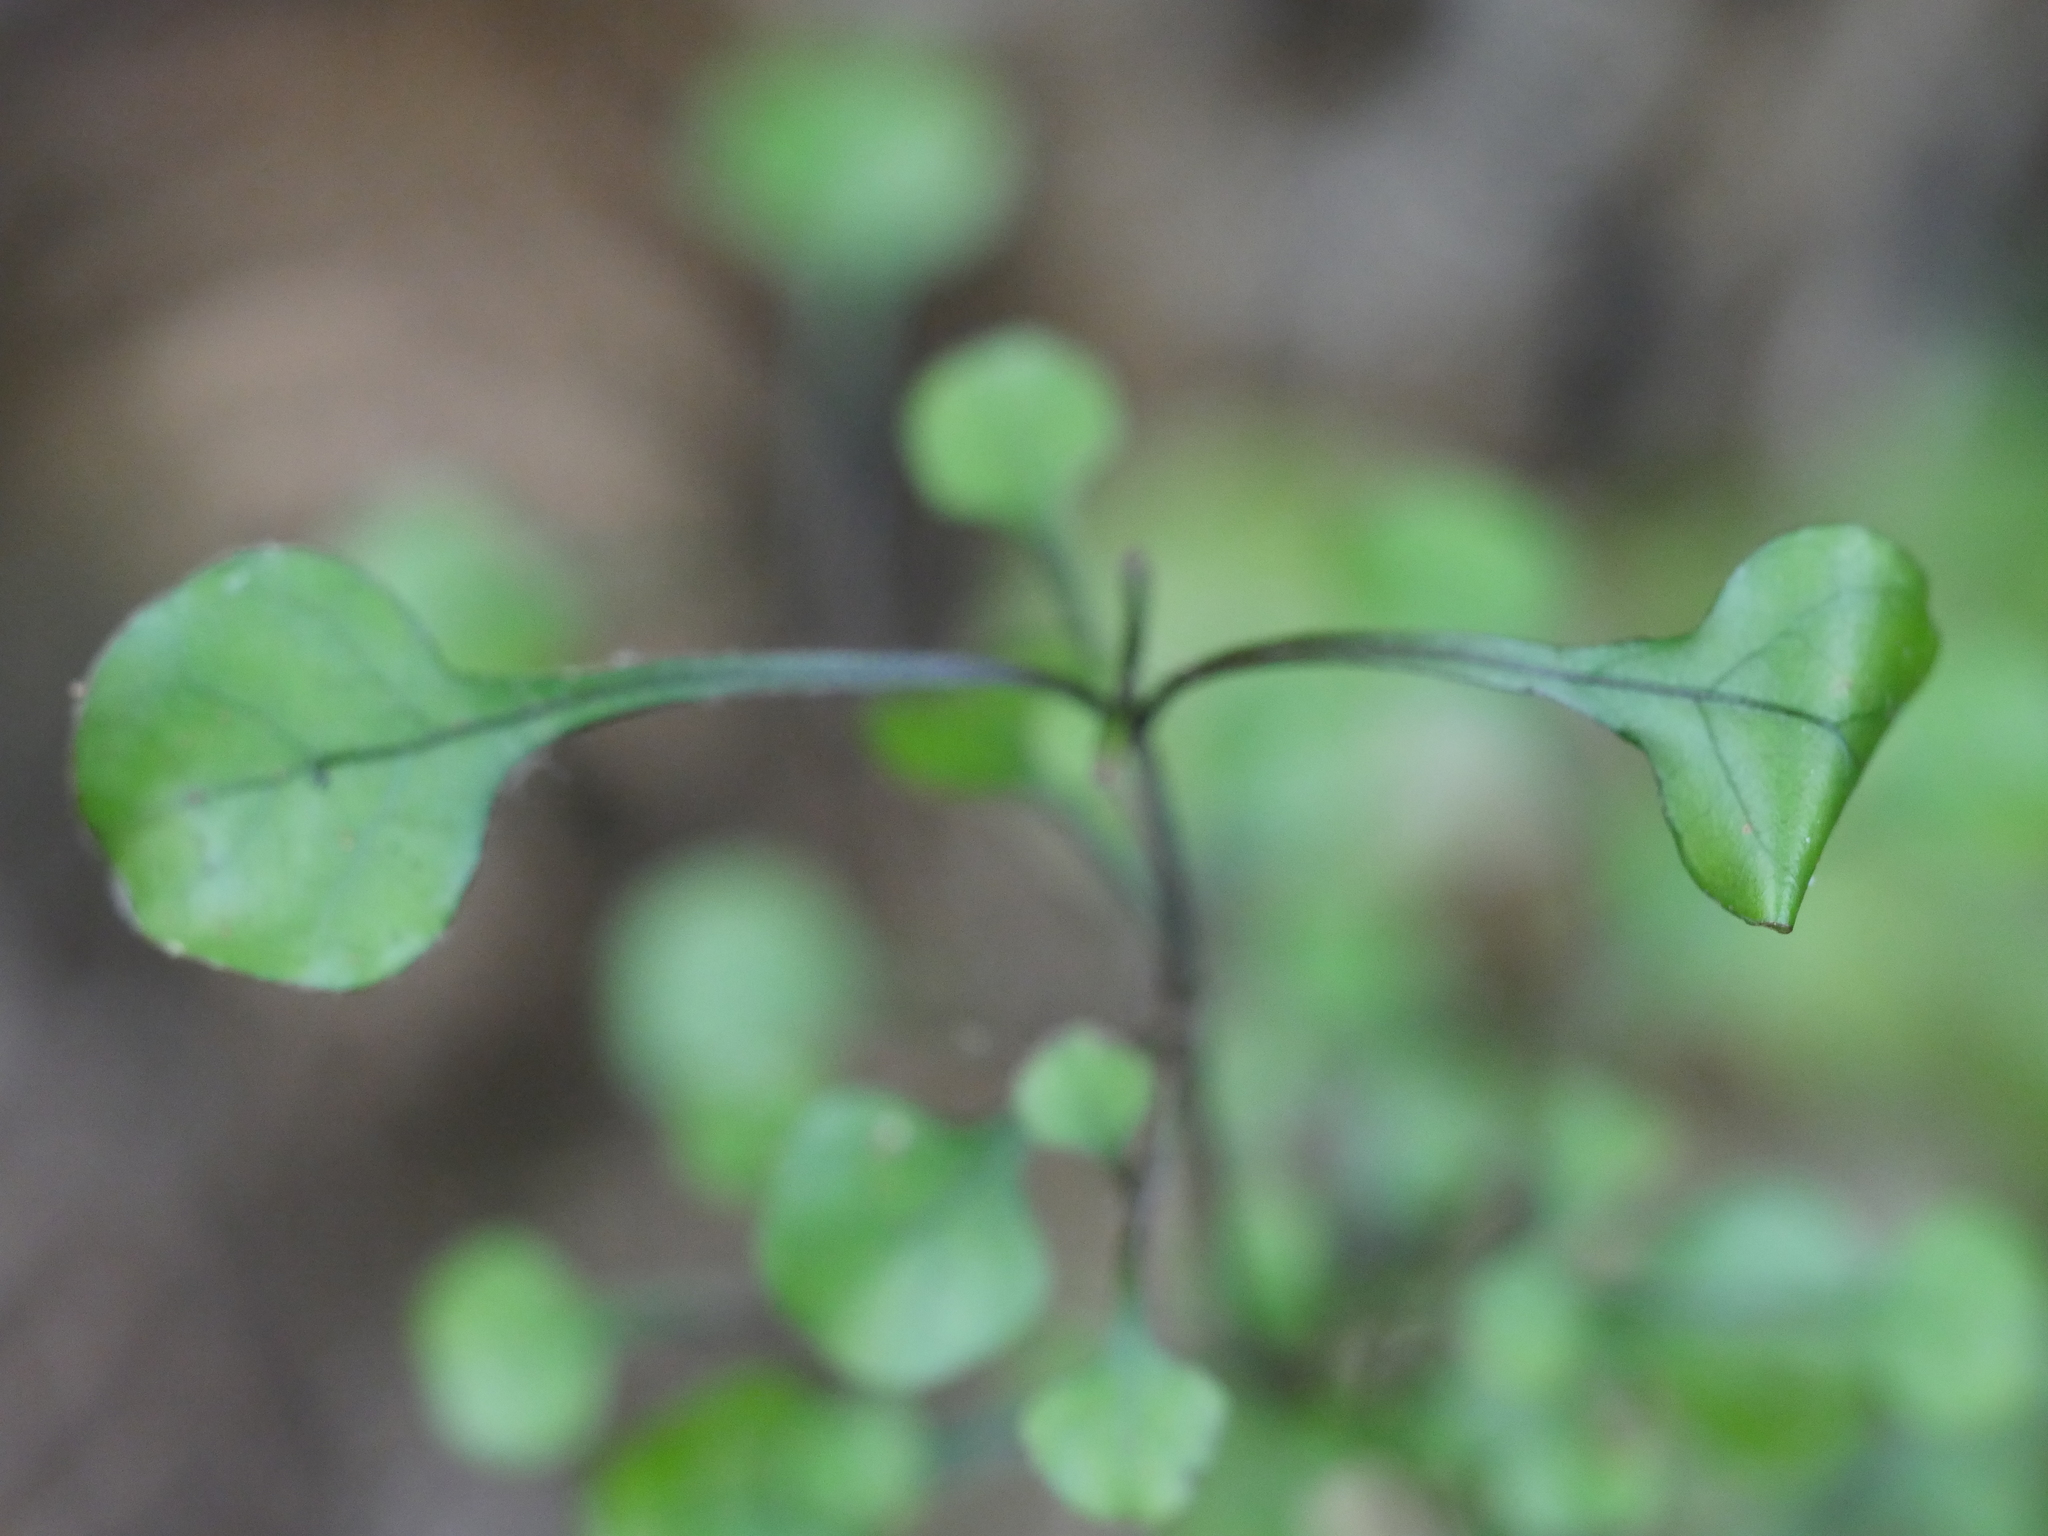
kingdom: Plantae
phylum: Tracheophyta
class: Magnoliopsida
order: Gentianales
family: Rubiaceae
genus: Coprosma
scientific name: Coprosma spathulata
